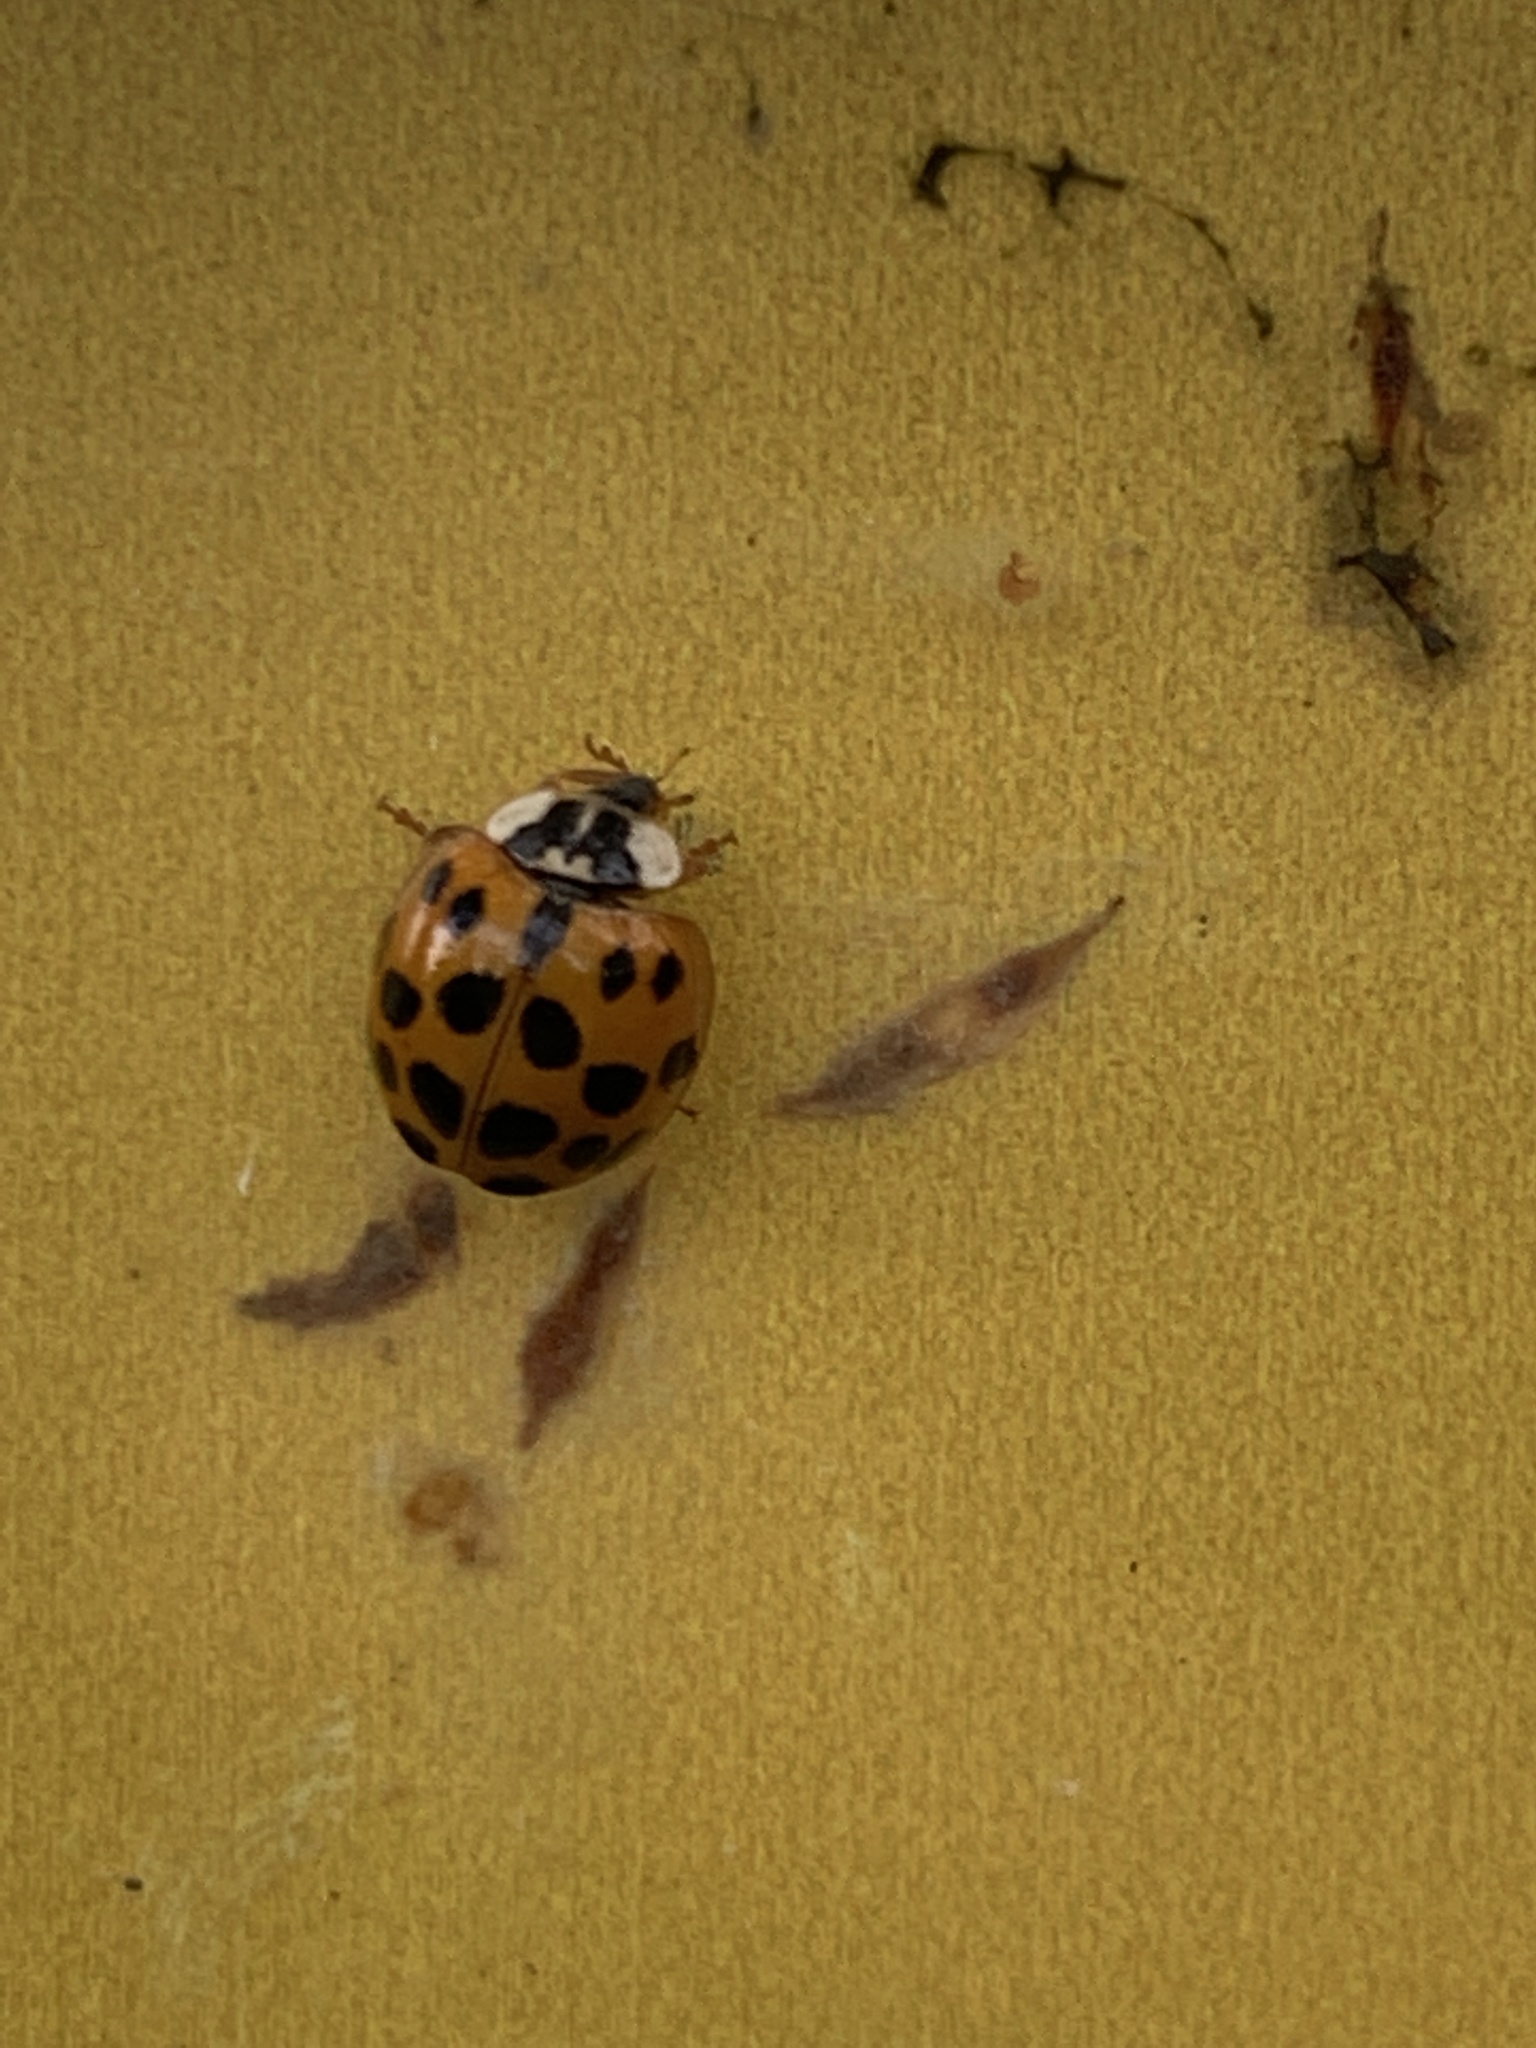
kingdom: Animalia
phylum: Arthropoda
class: Insecta
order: Coleoptera
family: Coccinellidae
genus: Harmonia
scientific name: Harmonia axyridis
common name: Harlequin ladybird
